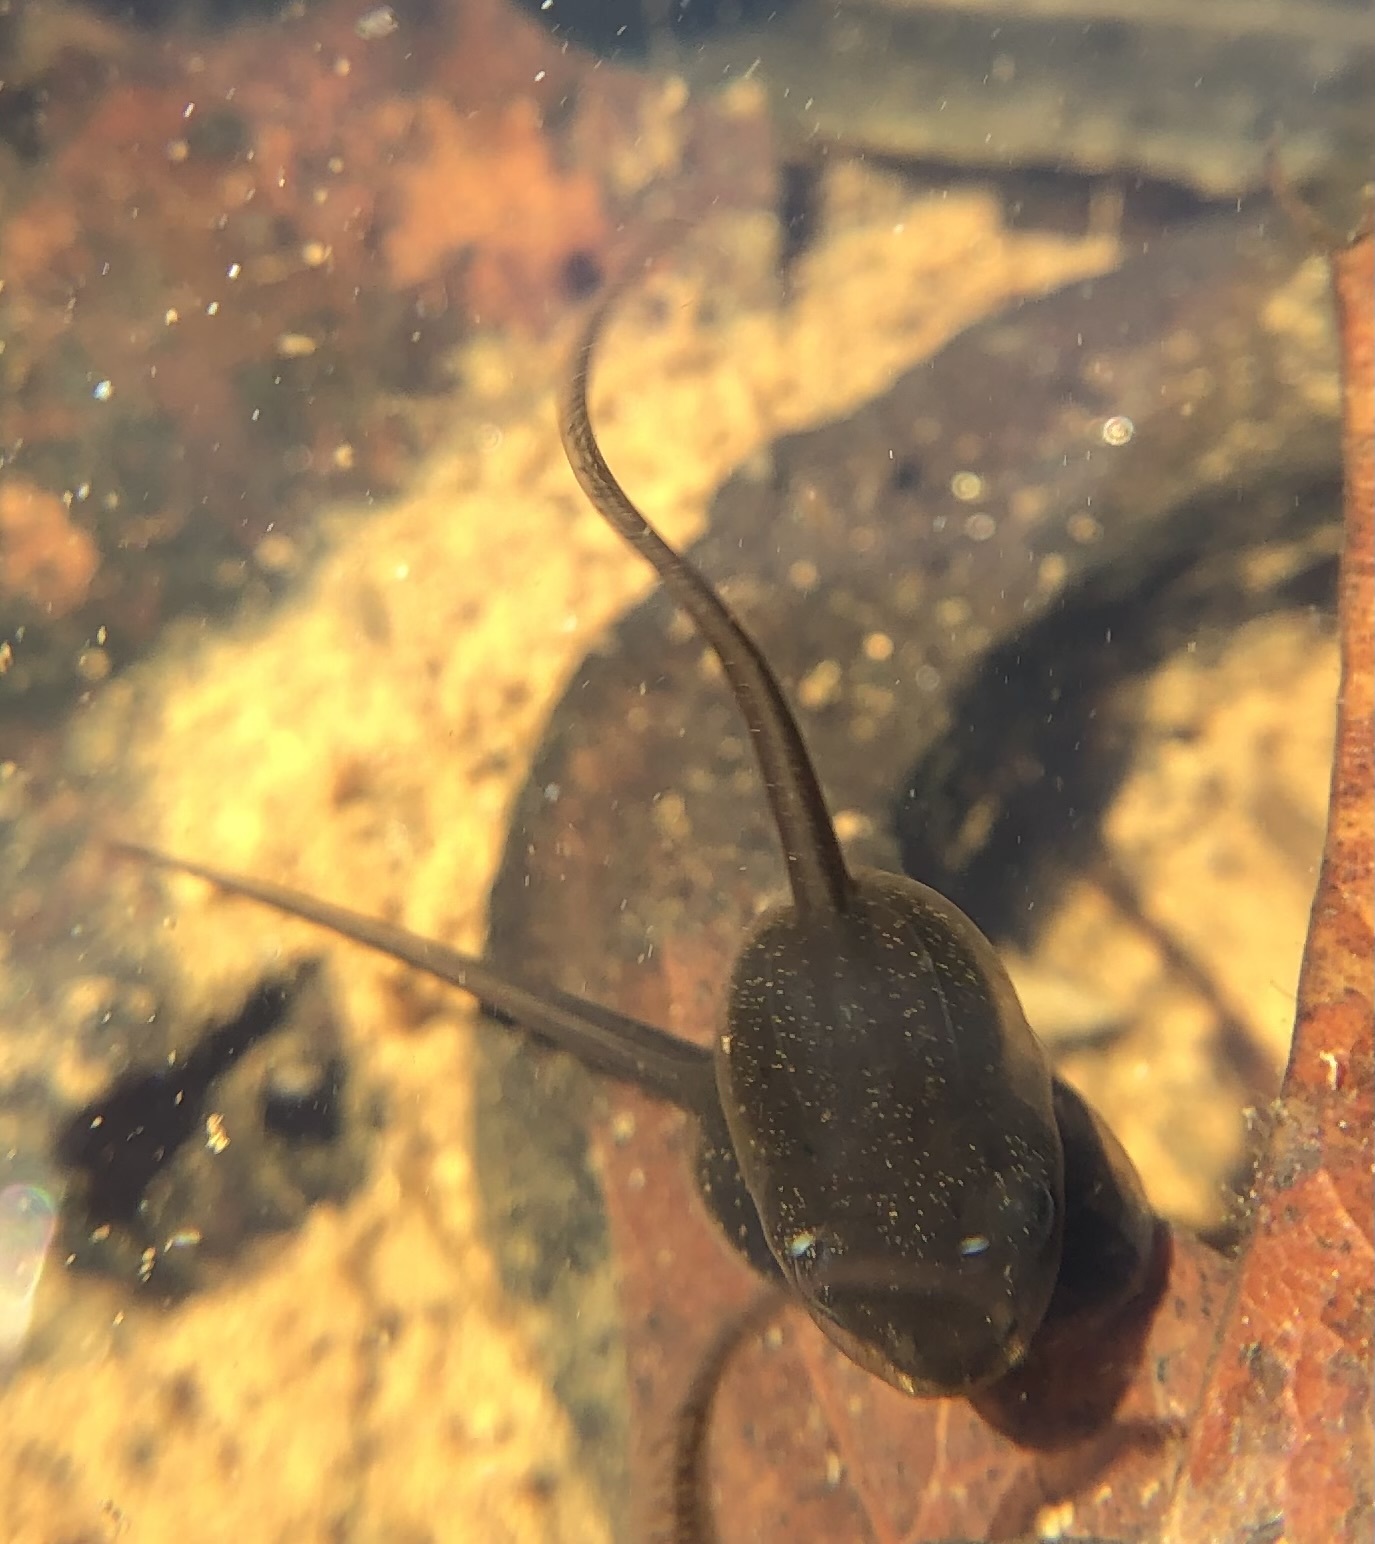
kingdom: Animalia
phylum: Chordata
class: Amphibia
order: Anura
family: Ranidae
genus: Lithobates
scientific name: Lithobates sylvaticus
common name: Wood frog
